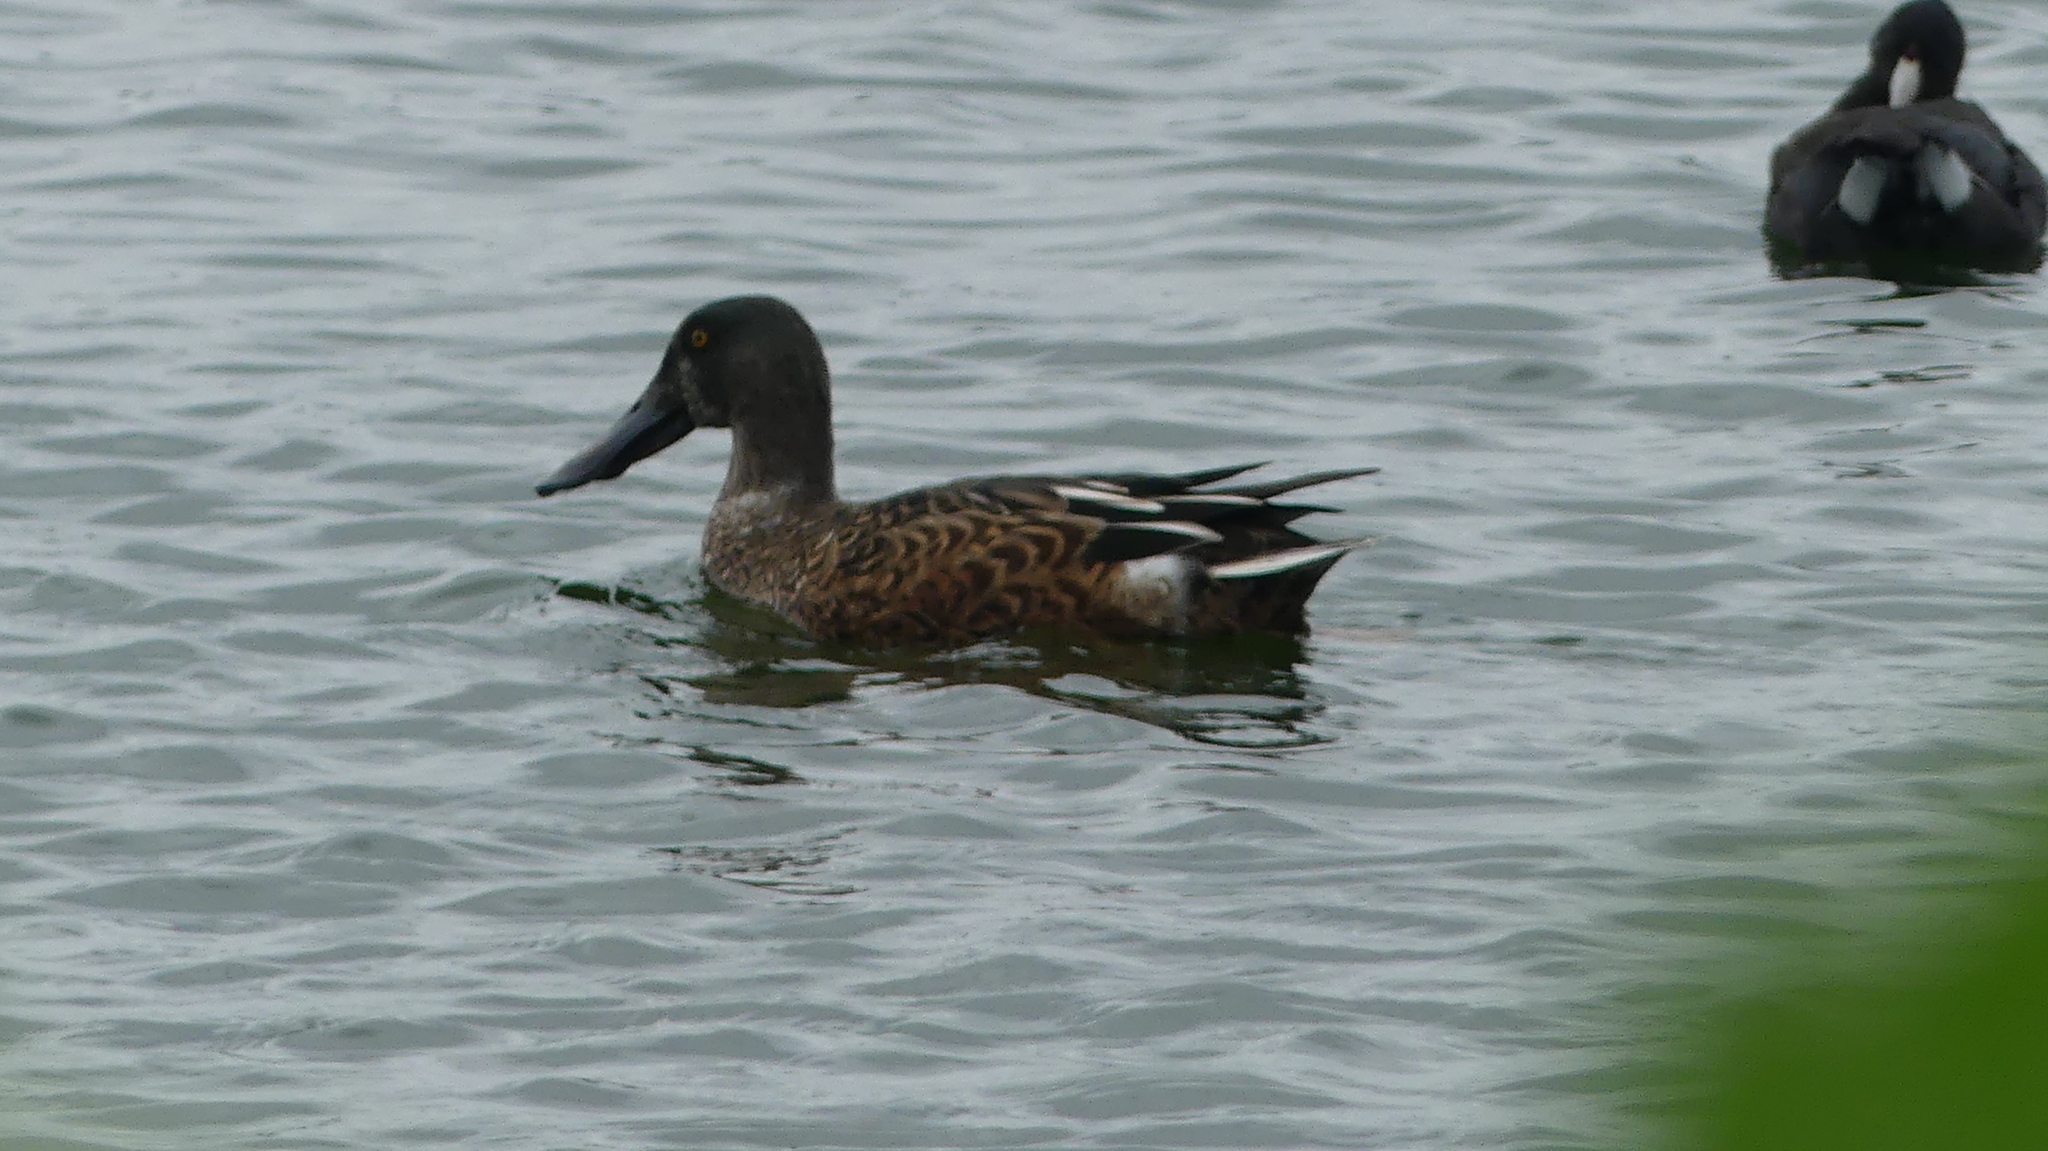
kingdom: Animalia
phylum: Chordata
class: Aves
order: Anseriformes
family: Anatidae
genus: Spatula
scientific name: Spatula clypeata
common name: Northern shoveler
